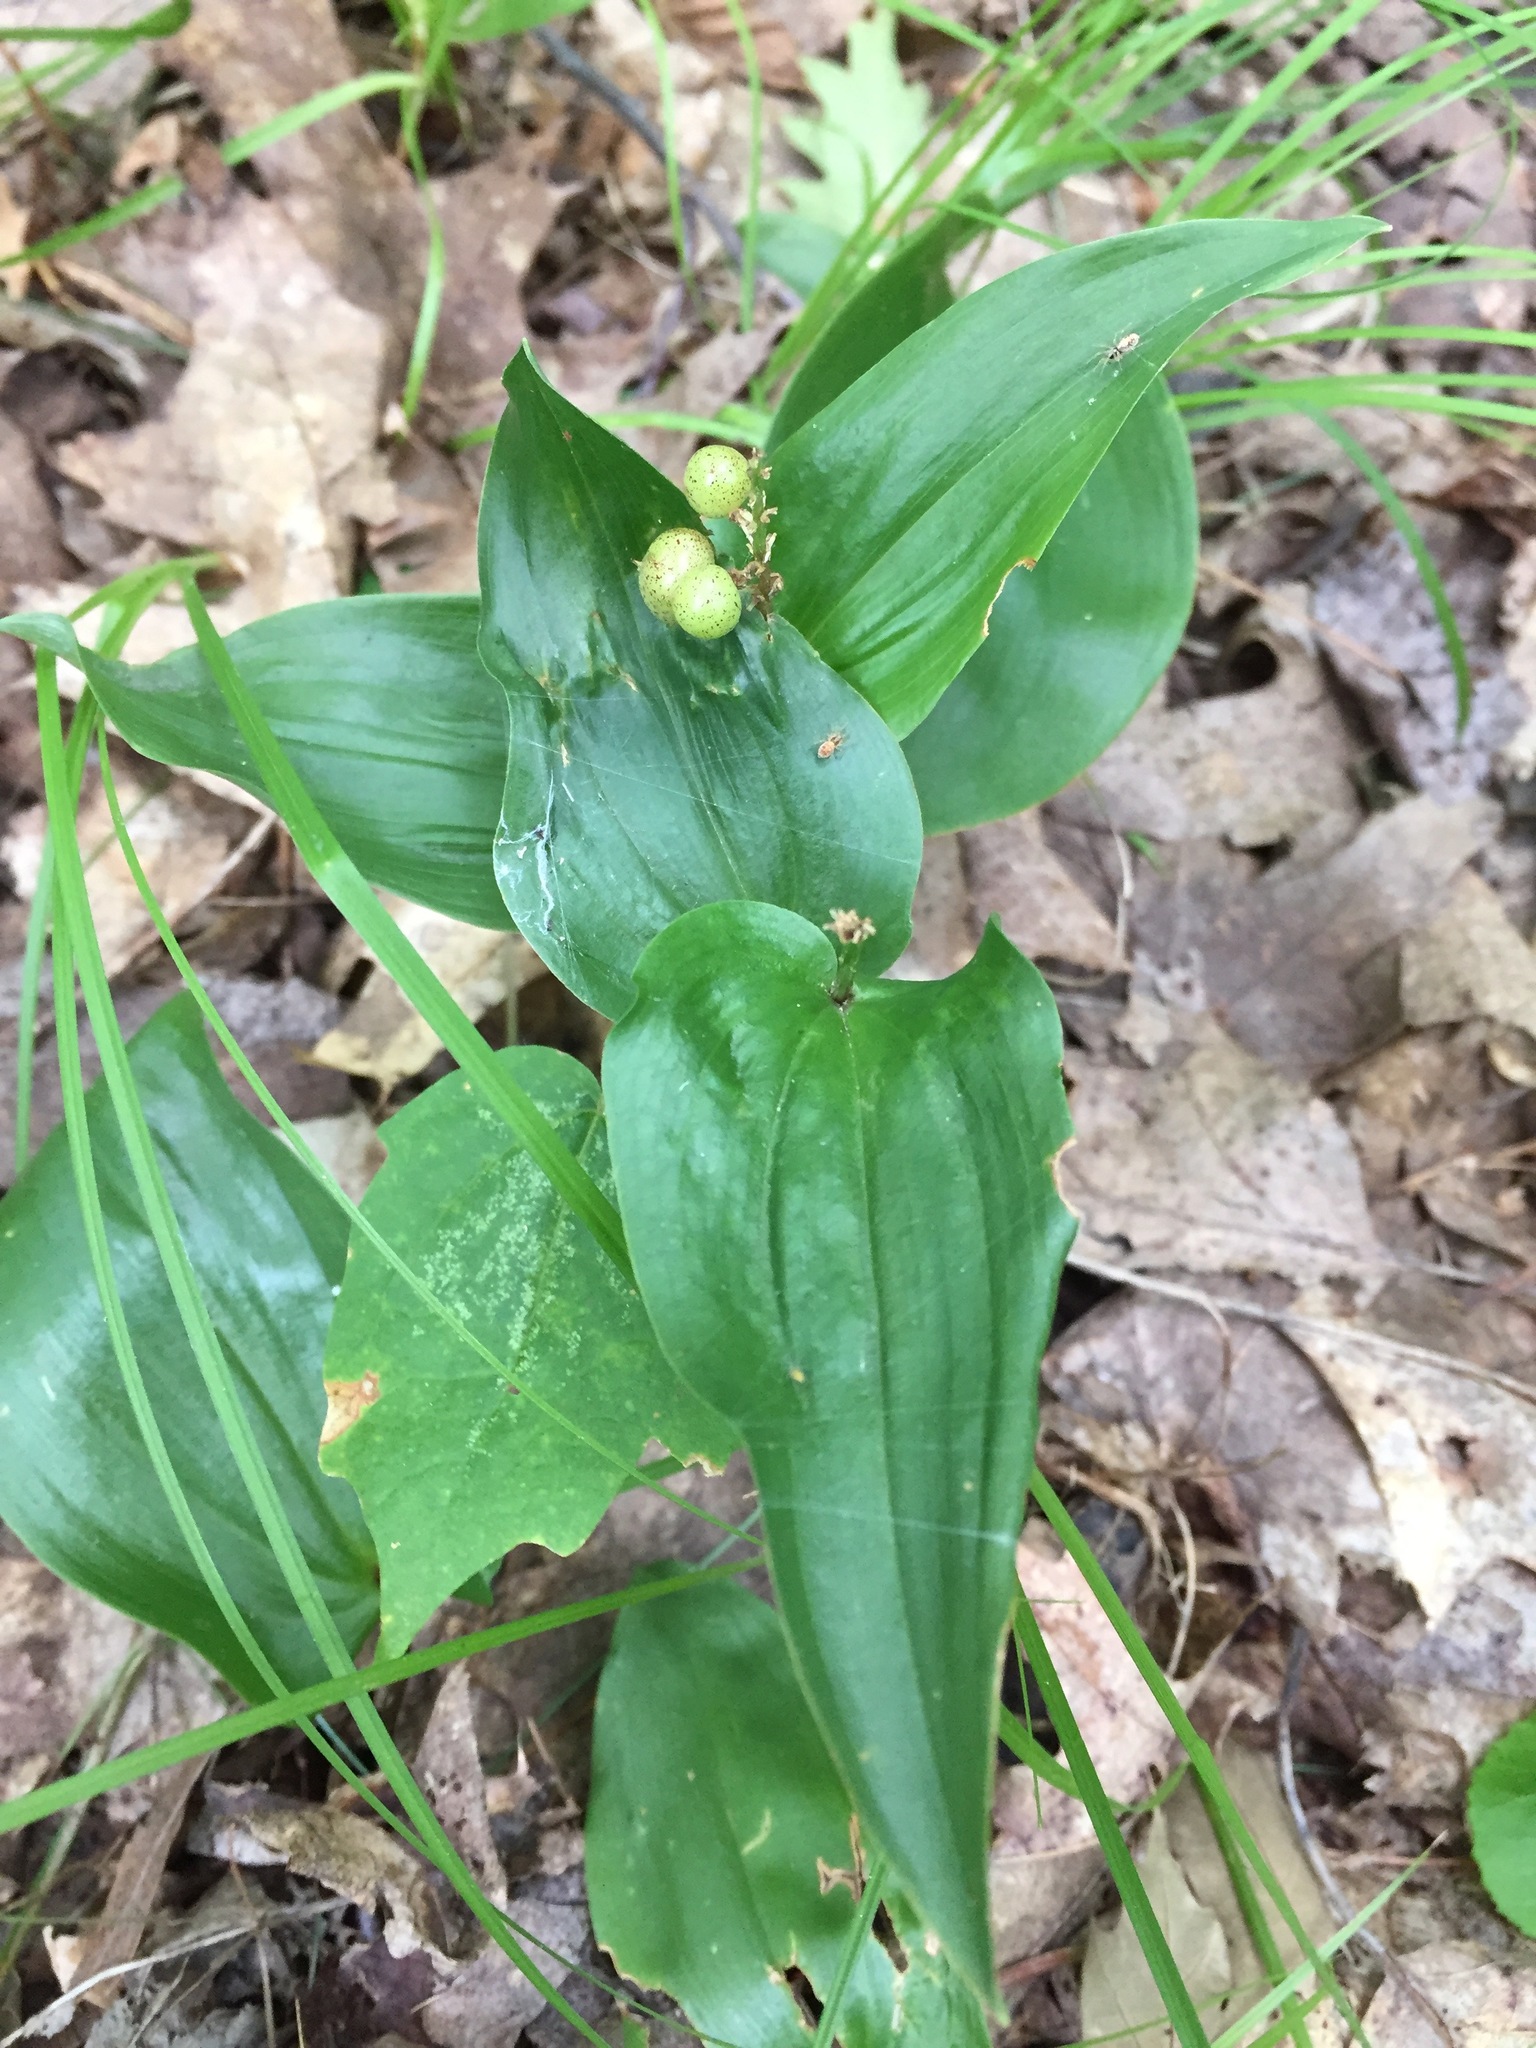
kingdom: Plantae
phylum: Tracheophyta
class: Liliopsida
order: Asparagales
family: Asparagaceae
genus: Maianthemum
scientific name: Maianthemum canadense
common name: False lily-of-the-valley
